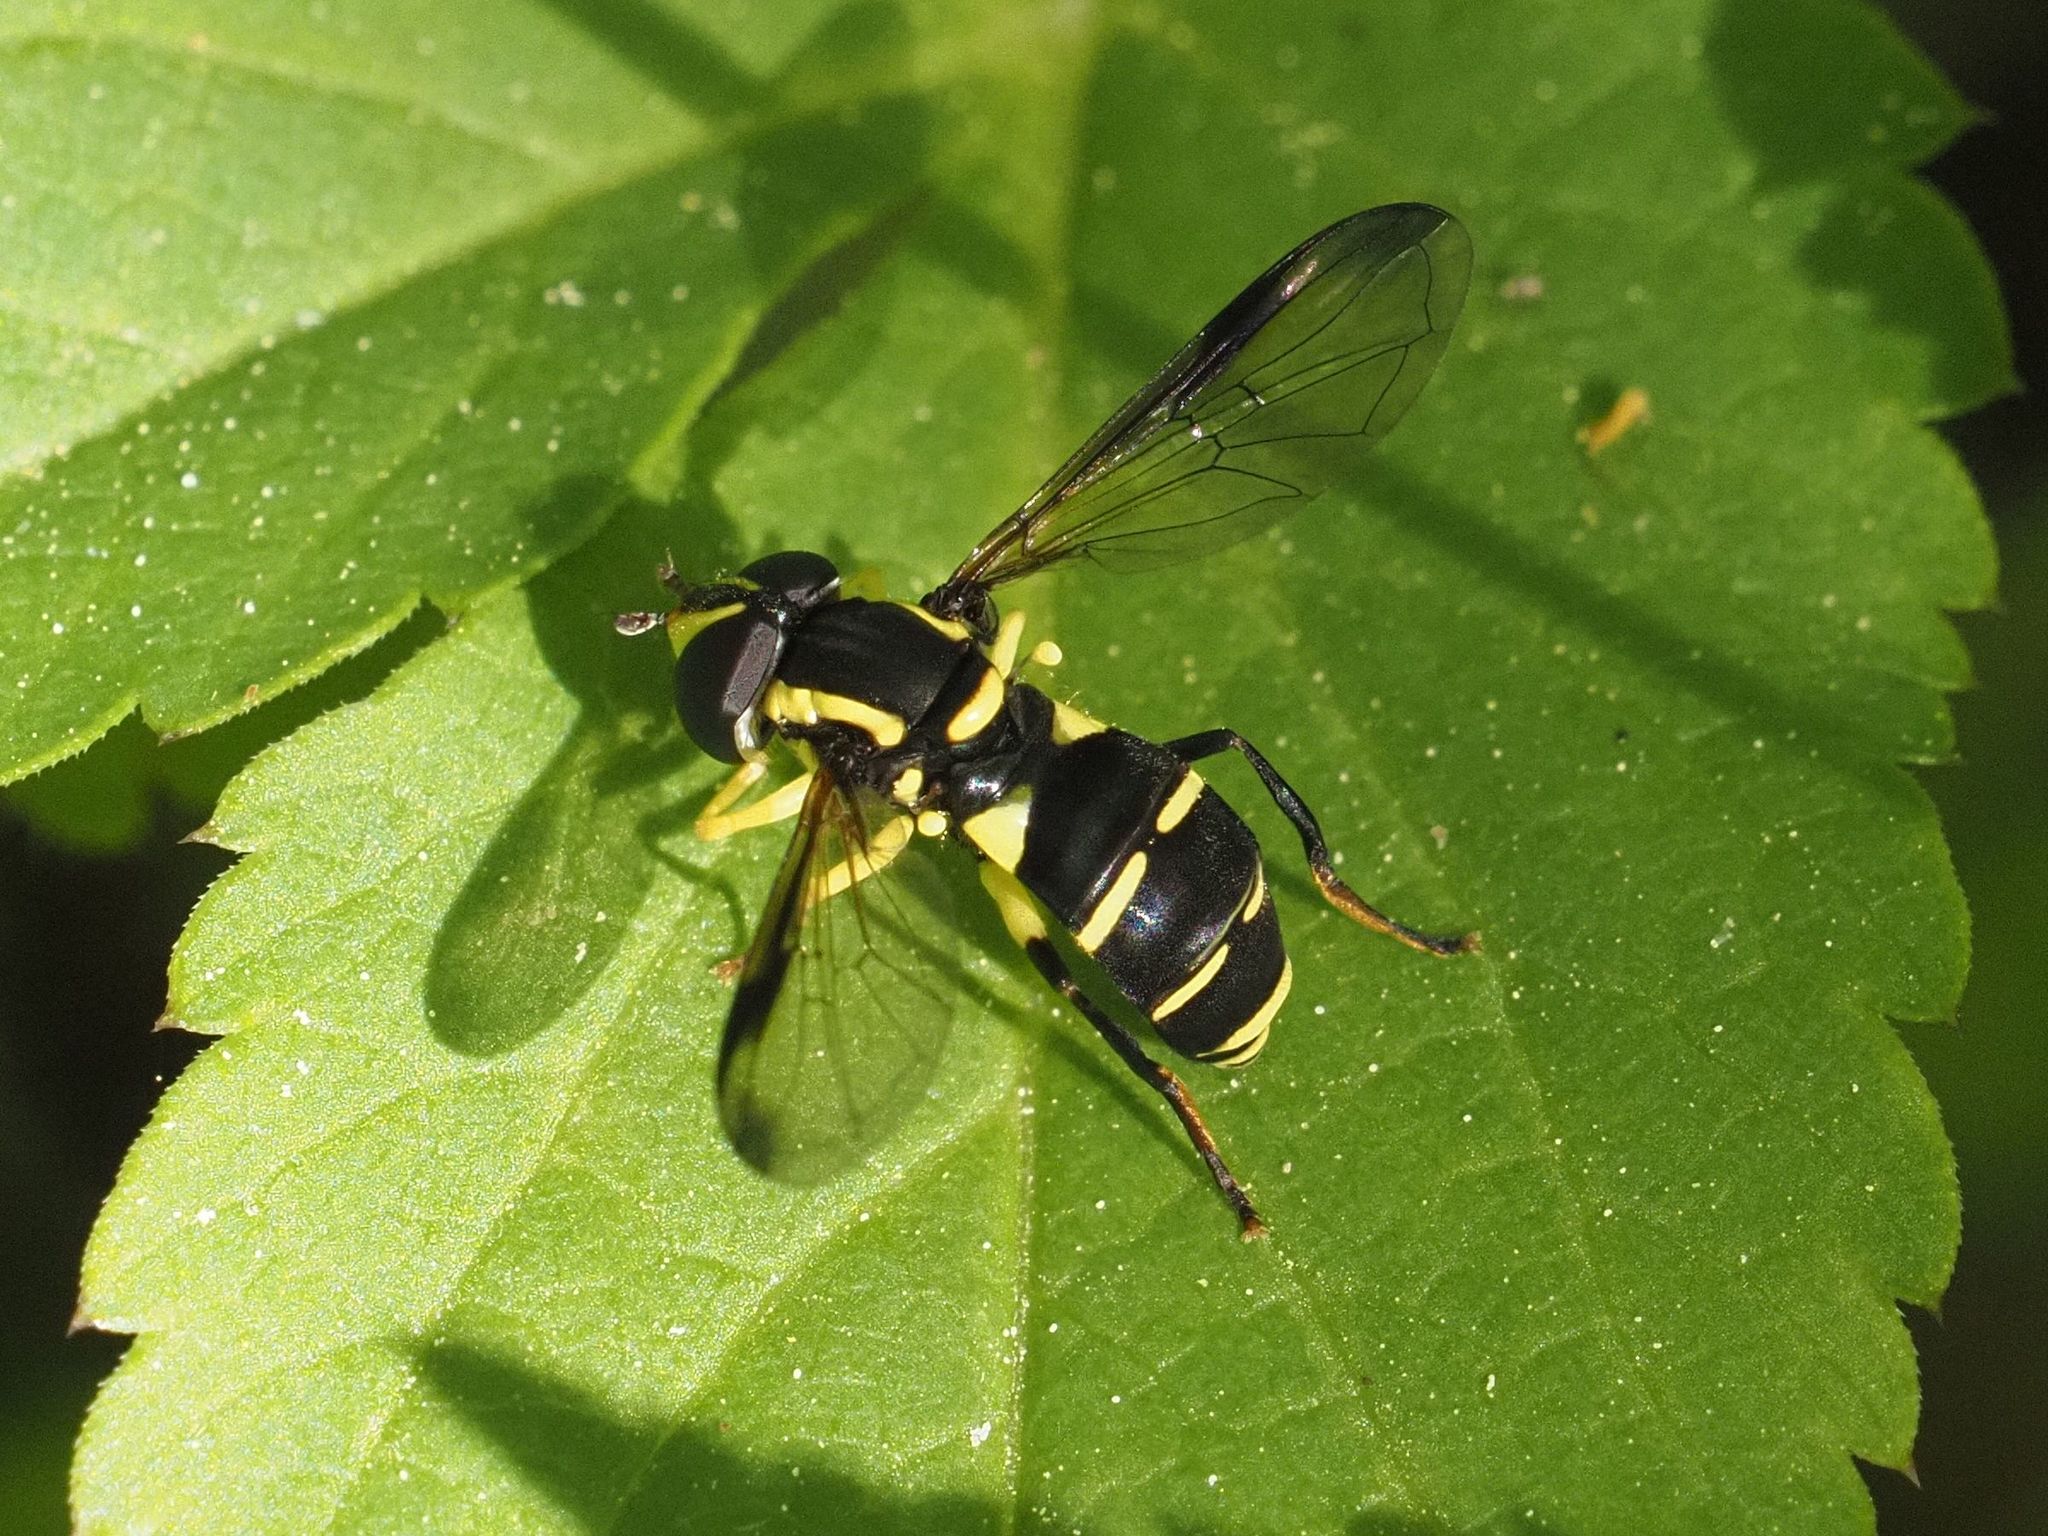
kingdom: Animalia
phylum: Arthropoda
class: Insecta
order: Diptera
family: Syrphidae
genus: Philhelius
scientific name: Philhelius dives
